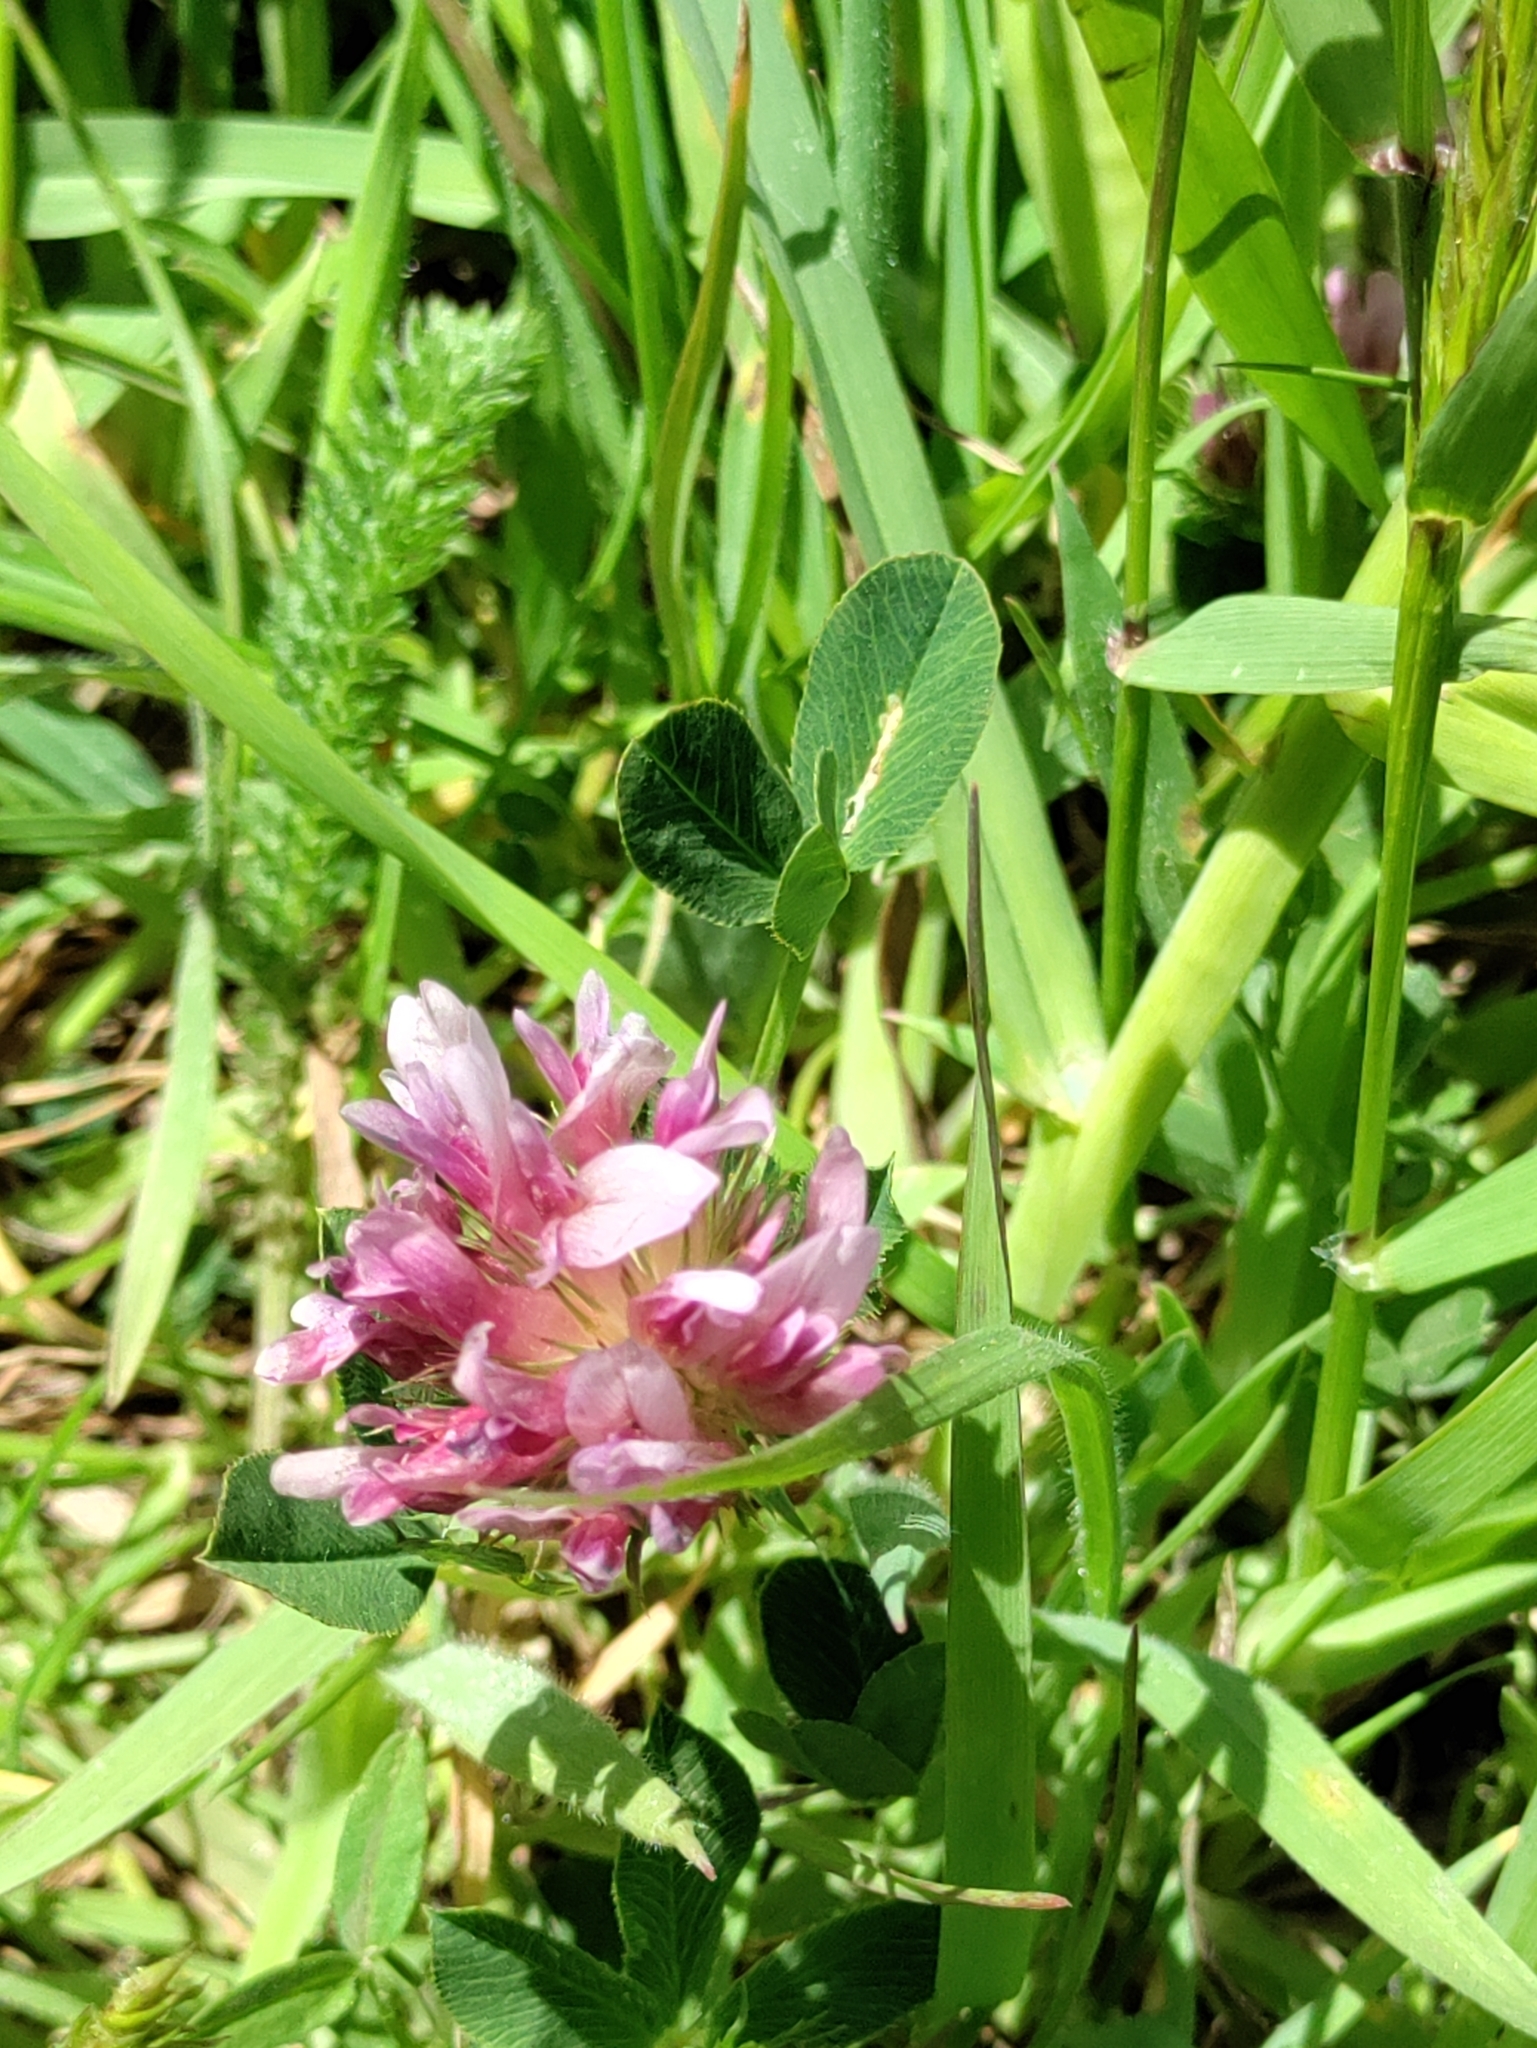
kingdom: Plantae
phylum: Tracheophyta
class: Magnoliopsida
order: Fabales
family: Fabaceae
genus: Trifolium
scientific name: Trifolium wormskioldii
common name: Springbank clover
